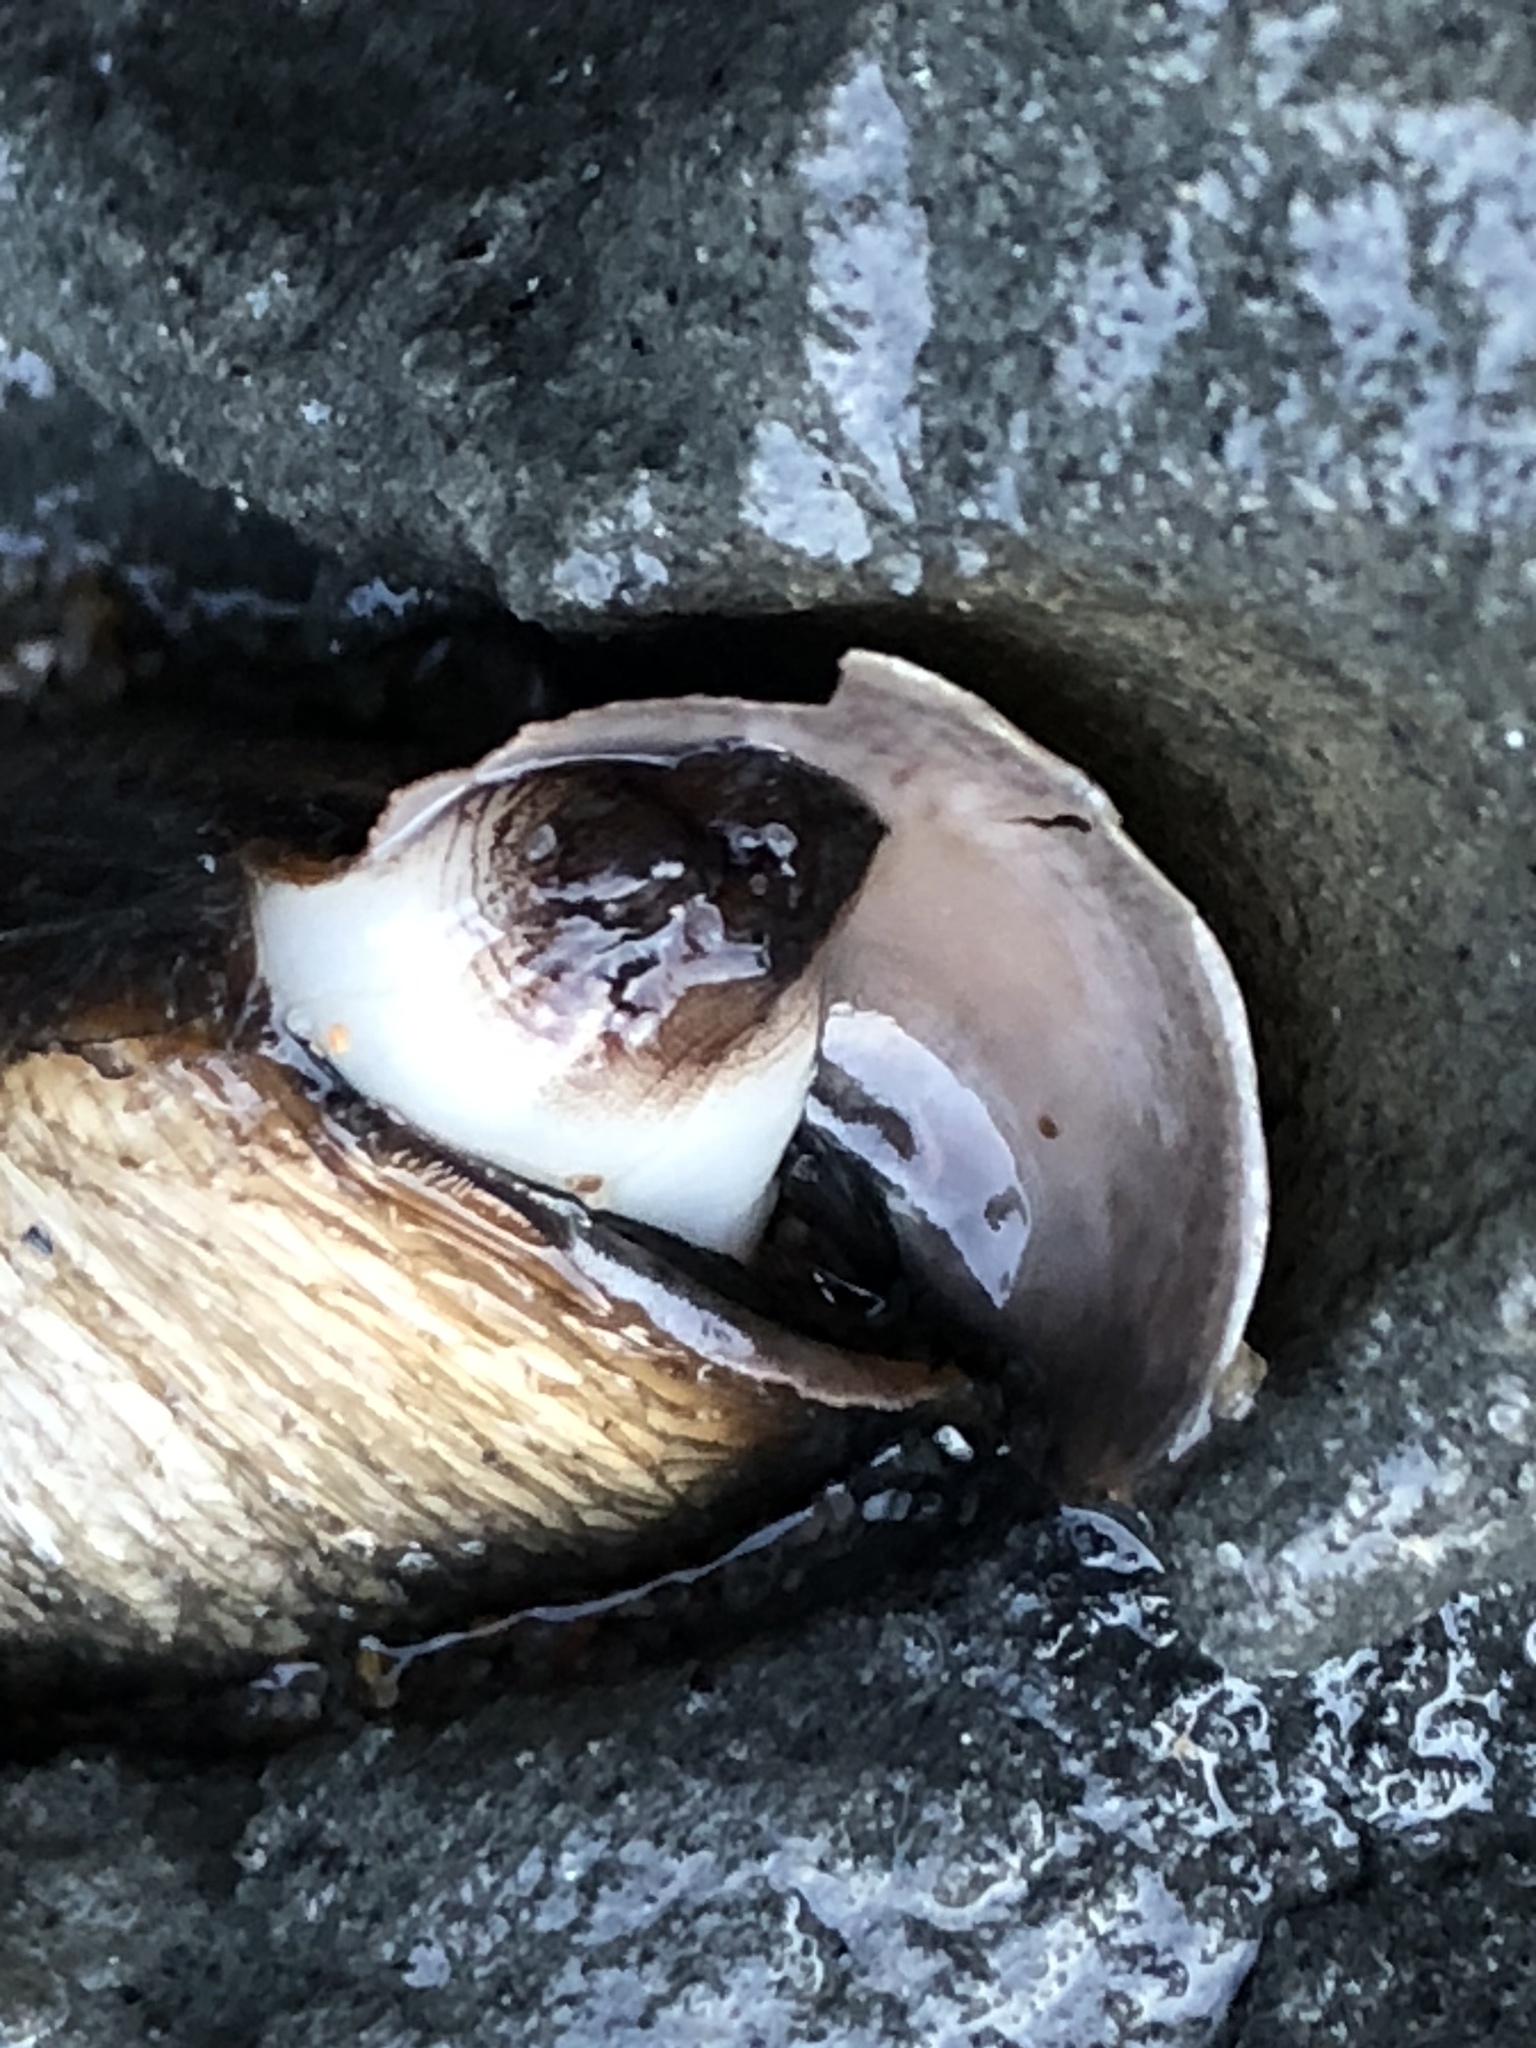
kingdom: Animalia
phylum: Mollusca
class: Bivalvia
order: Myida
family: Pholadidae
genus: Penitella
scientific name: Penitella penita
